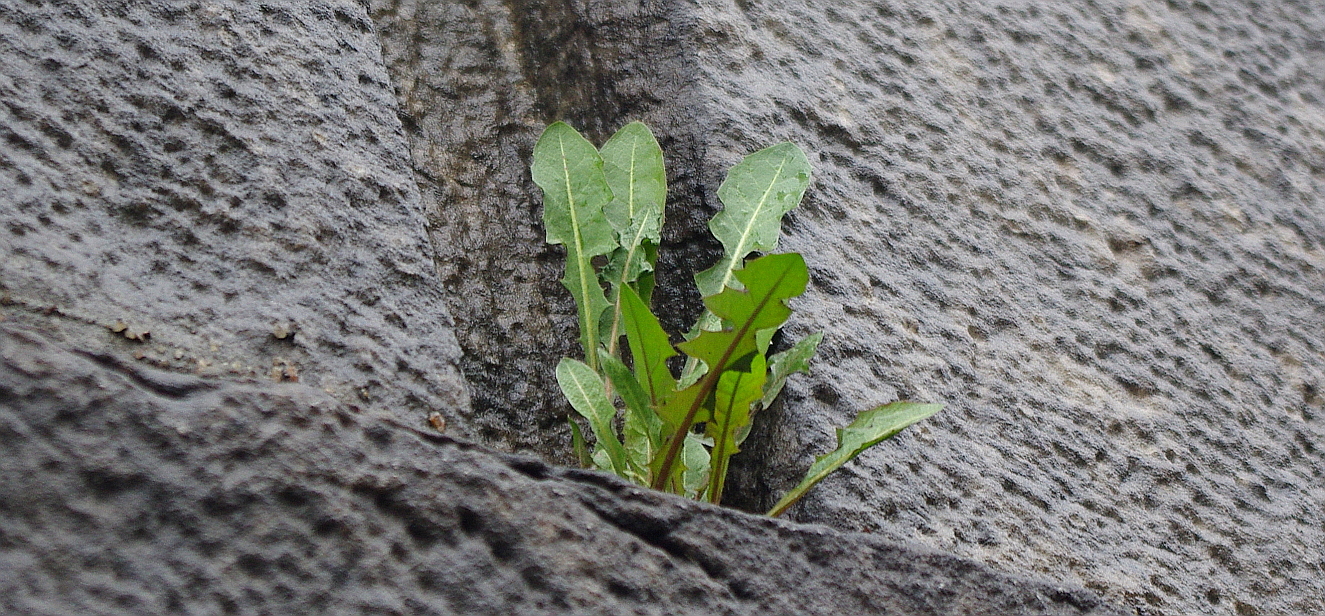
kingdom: Plantae
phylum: Tracheophyta
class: Magnoliopsida
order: Asterales
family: Asteraceae
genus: Taraxacum
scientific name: Taraxacum officinale
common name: Common dandelion
